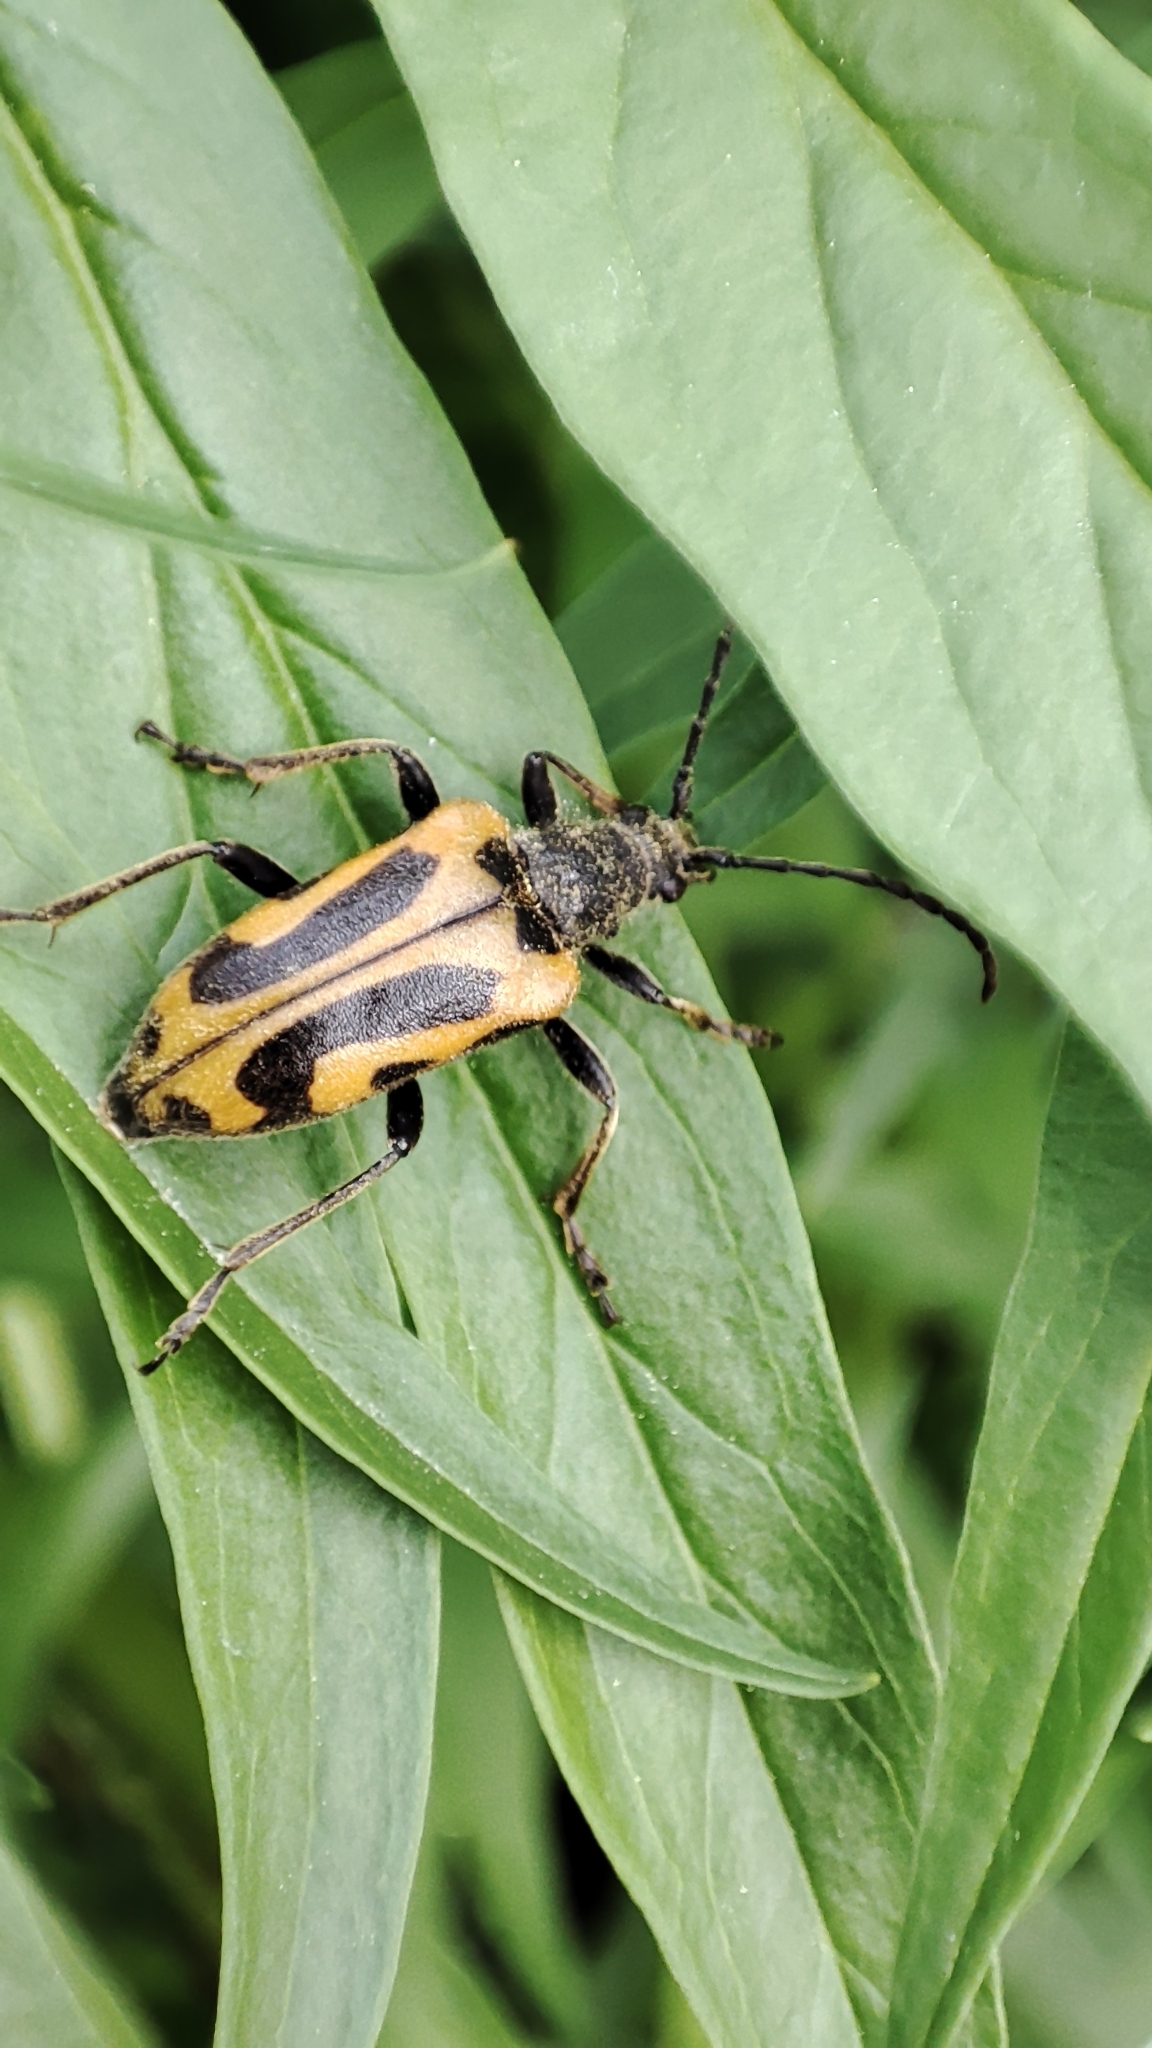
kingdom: Animalia
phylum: Arthropoda
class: Insecta
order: Coleoptera
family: Cerambycidae
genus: Brachyta
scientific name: Brachyta interrogationis
